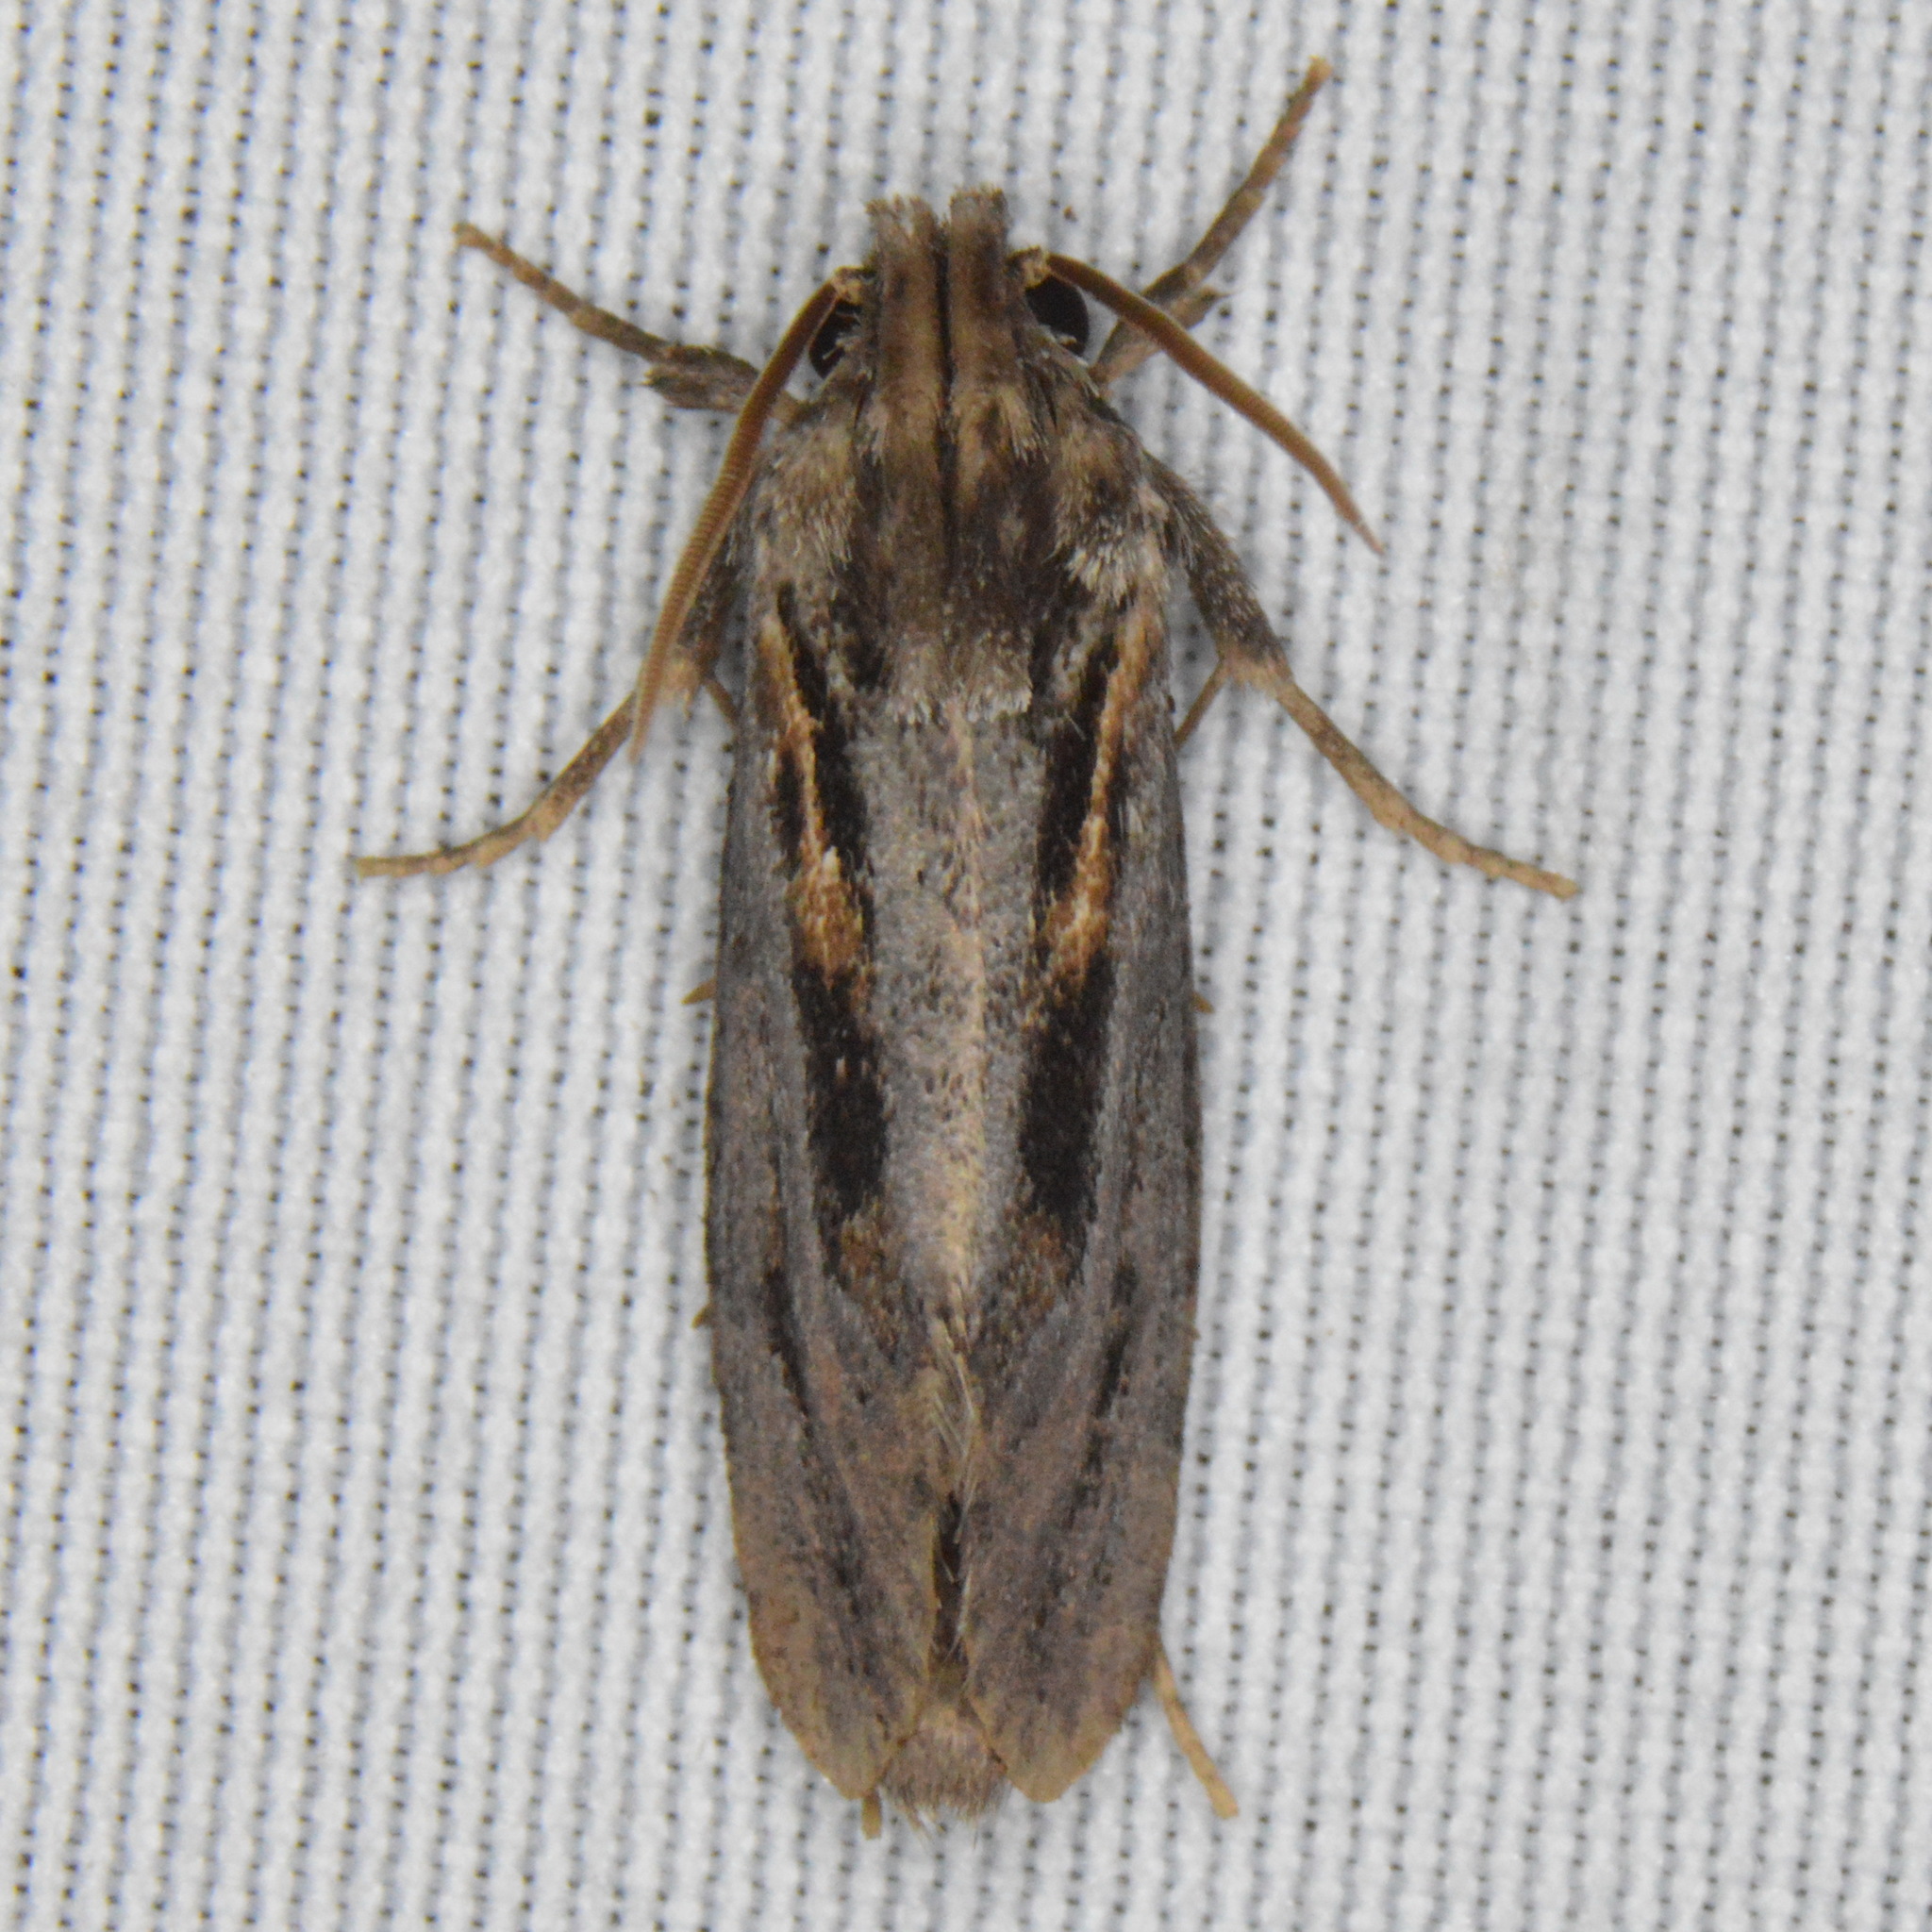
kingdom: Animalia
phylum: Arthropoda
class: Insecta
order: Lepidoptera
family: Tineidae
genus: Acrolophus
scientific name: Acrolophus popeanella
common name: Clemens' grass tubeworm moth
